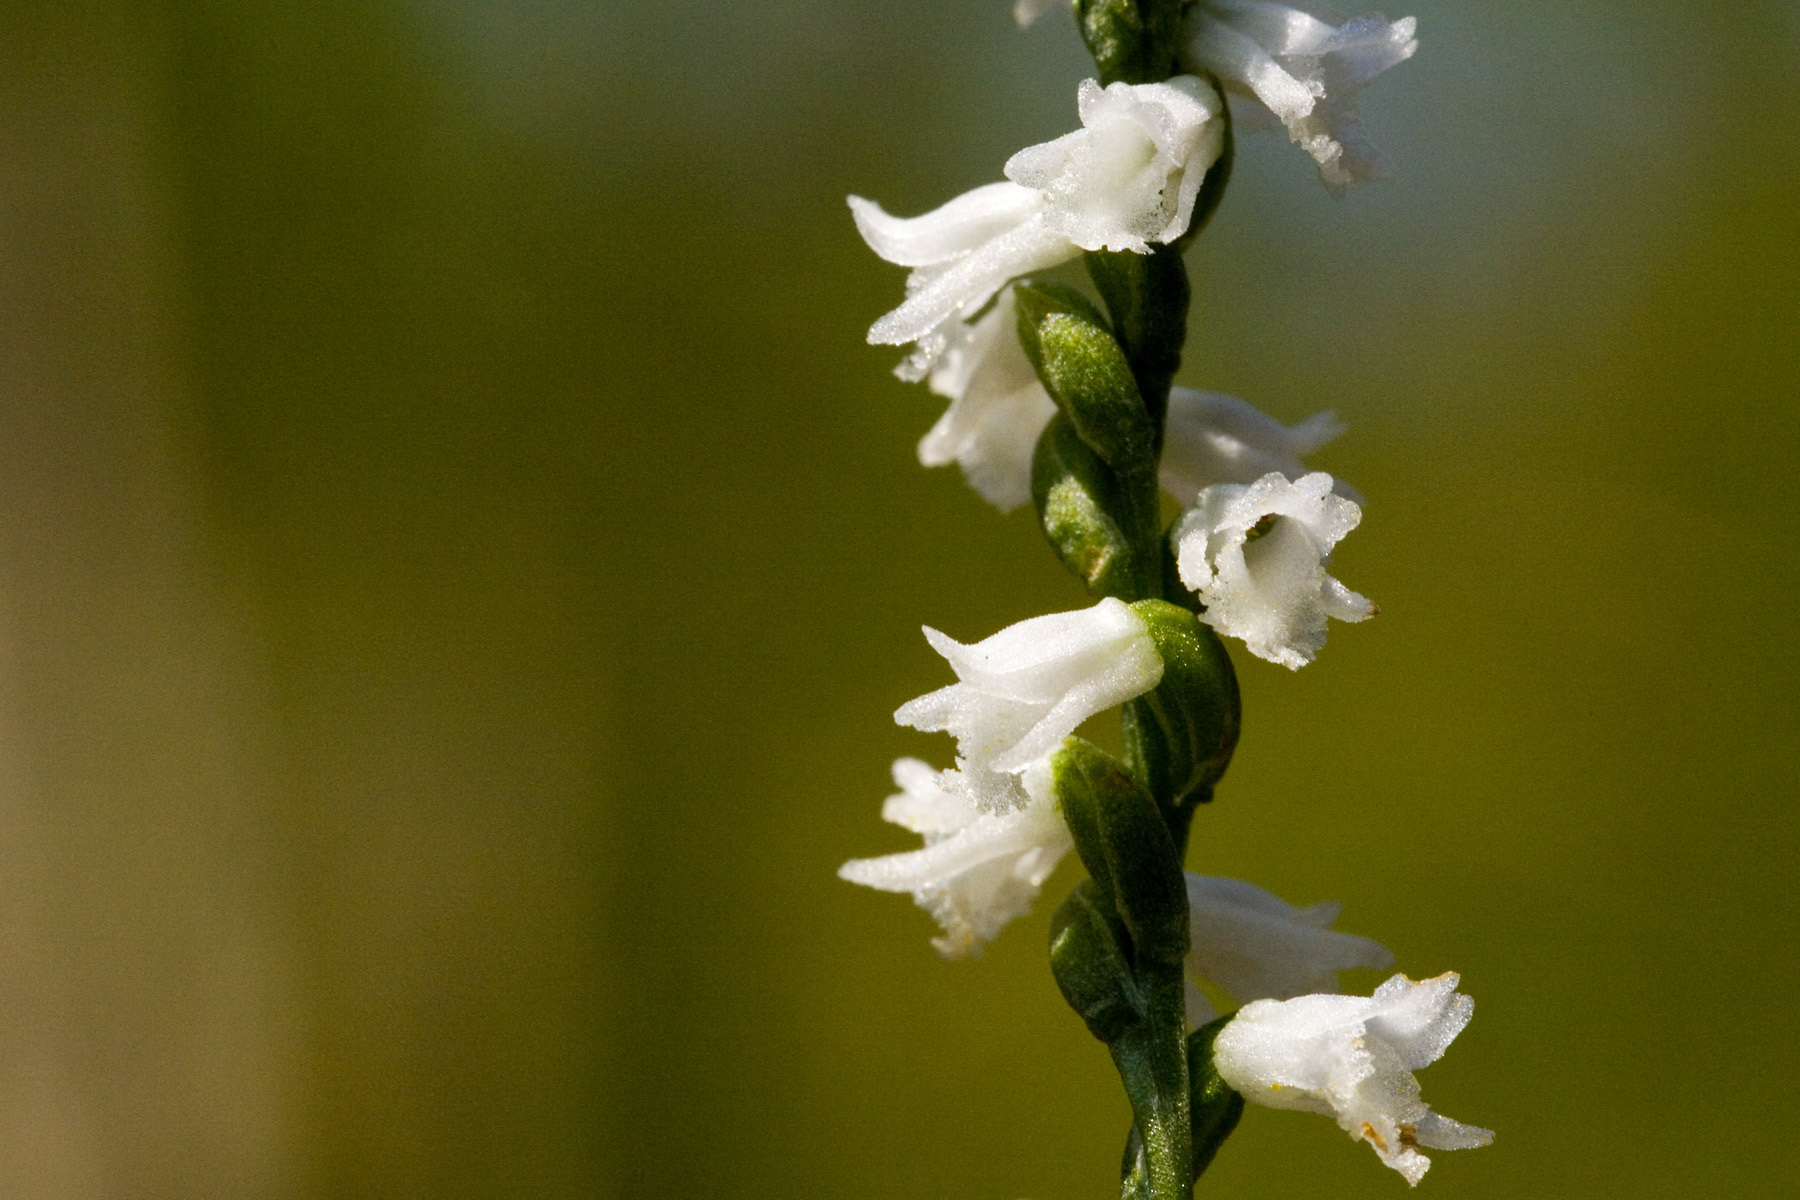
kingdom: Plantae
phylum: Tracheophyta
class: Liliopsida
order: Asparagales
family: Orchidaceae
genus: Spiranthes
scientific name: Spiranthes tuberosa
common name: Little ladies'-tresses
